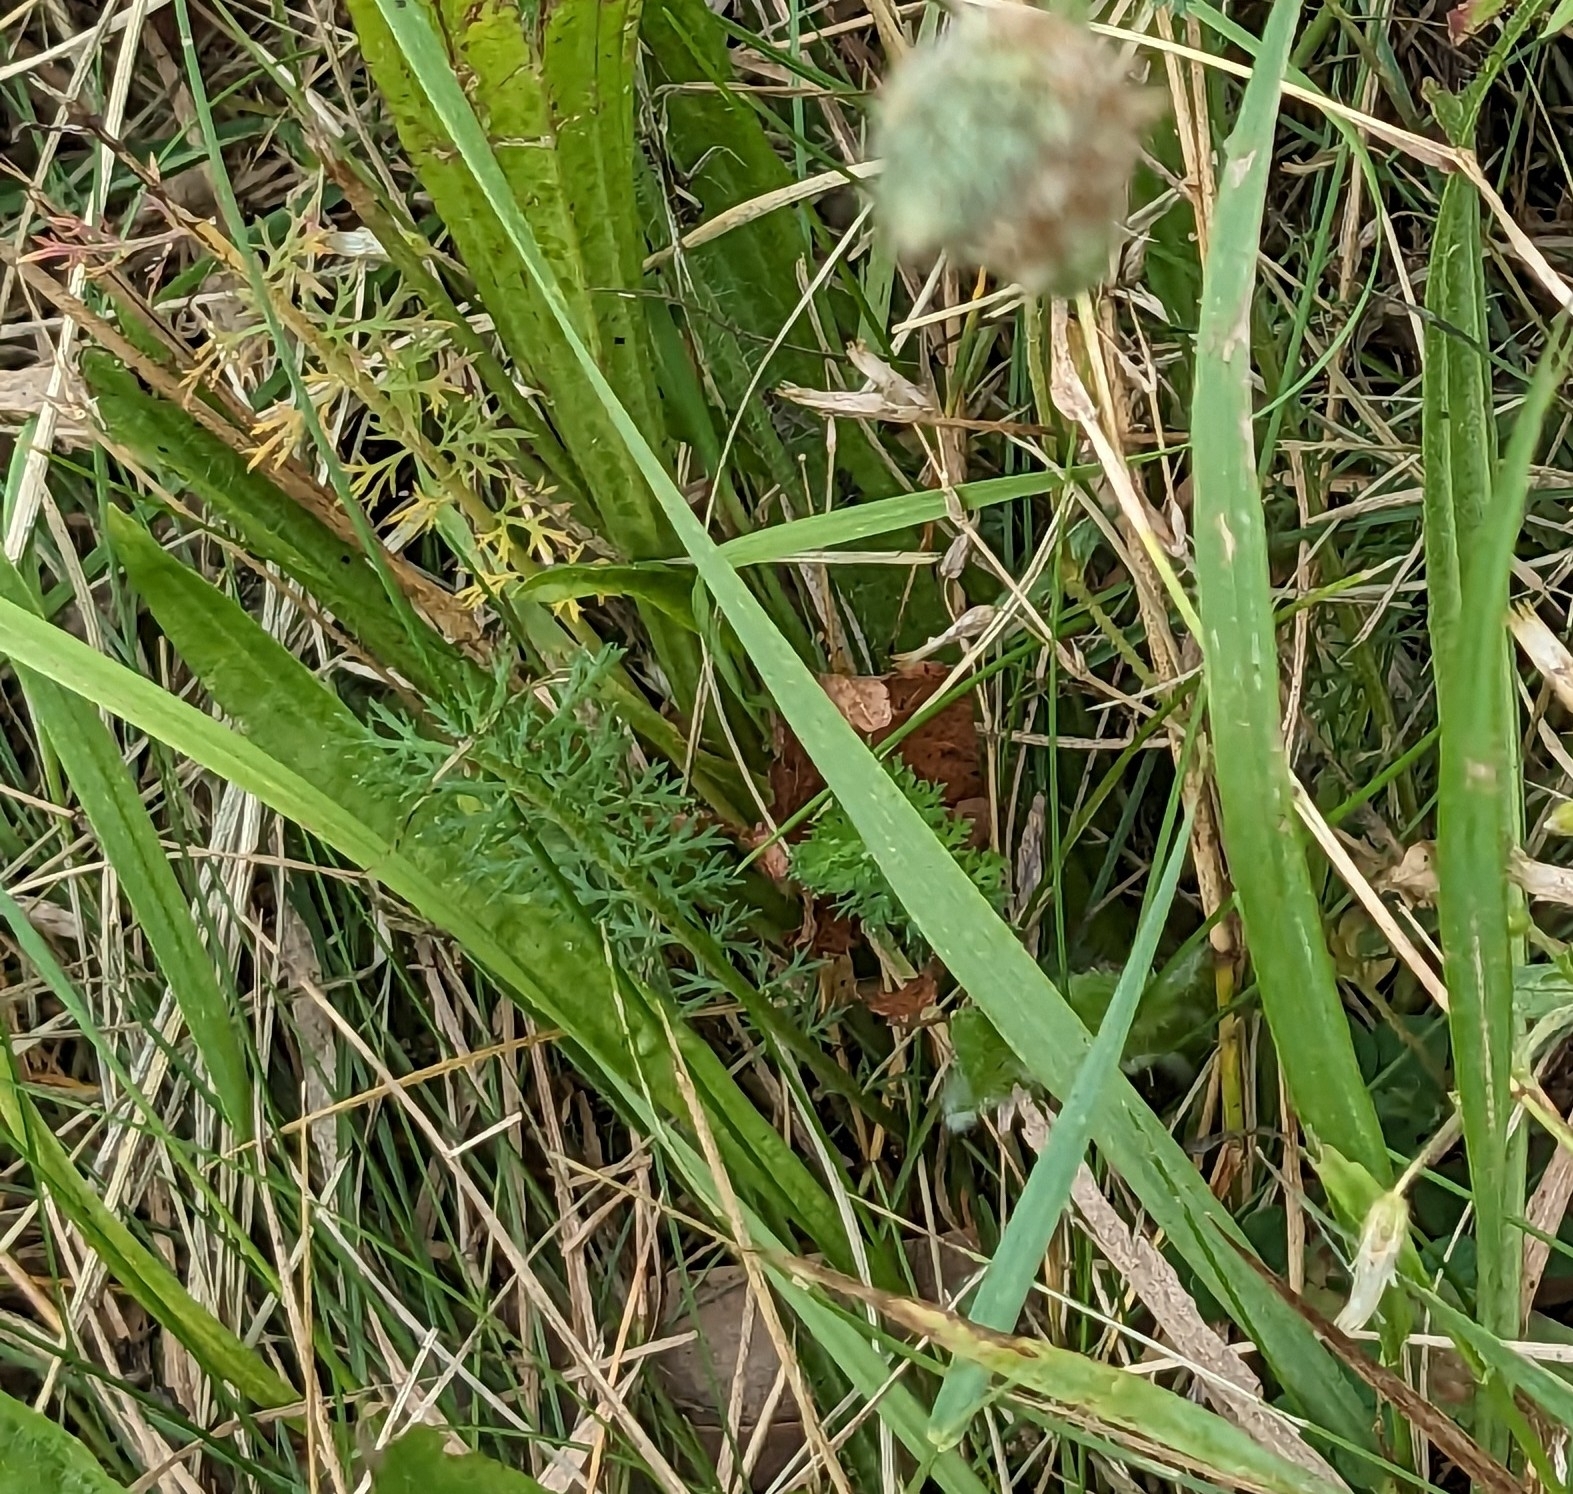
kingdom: Plantae
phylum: Tracheophyta
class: Magnoliopsida
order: Asterales
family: Asteraceae
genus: Achillea
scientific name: Achillea millefolium
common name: Yarrow
